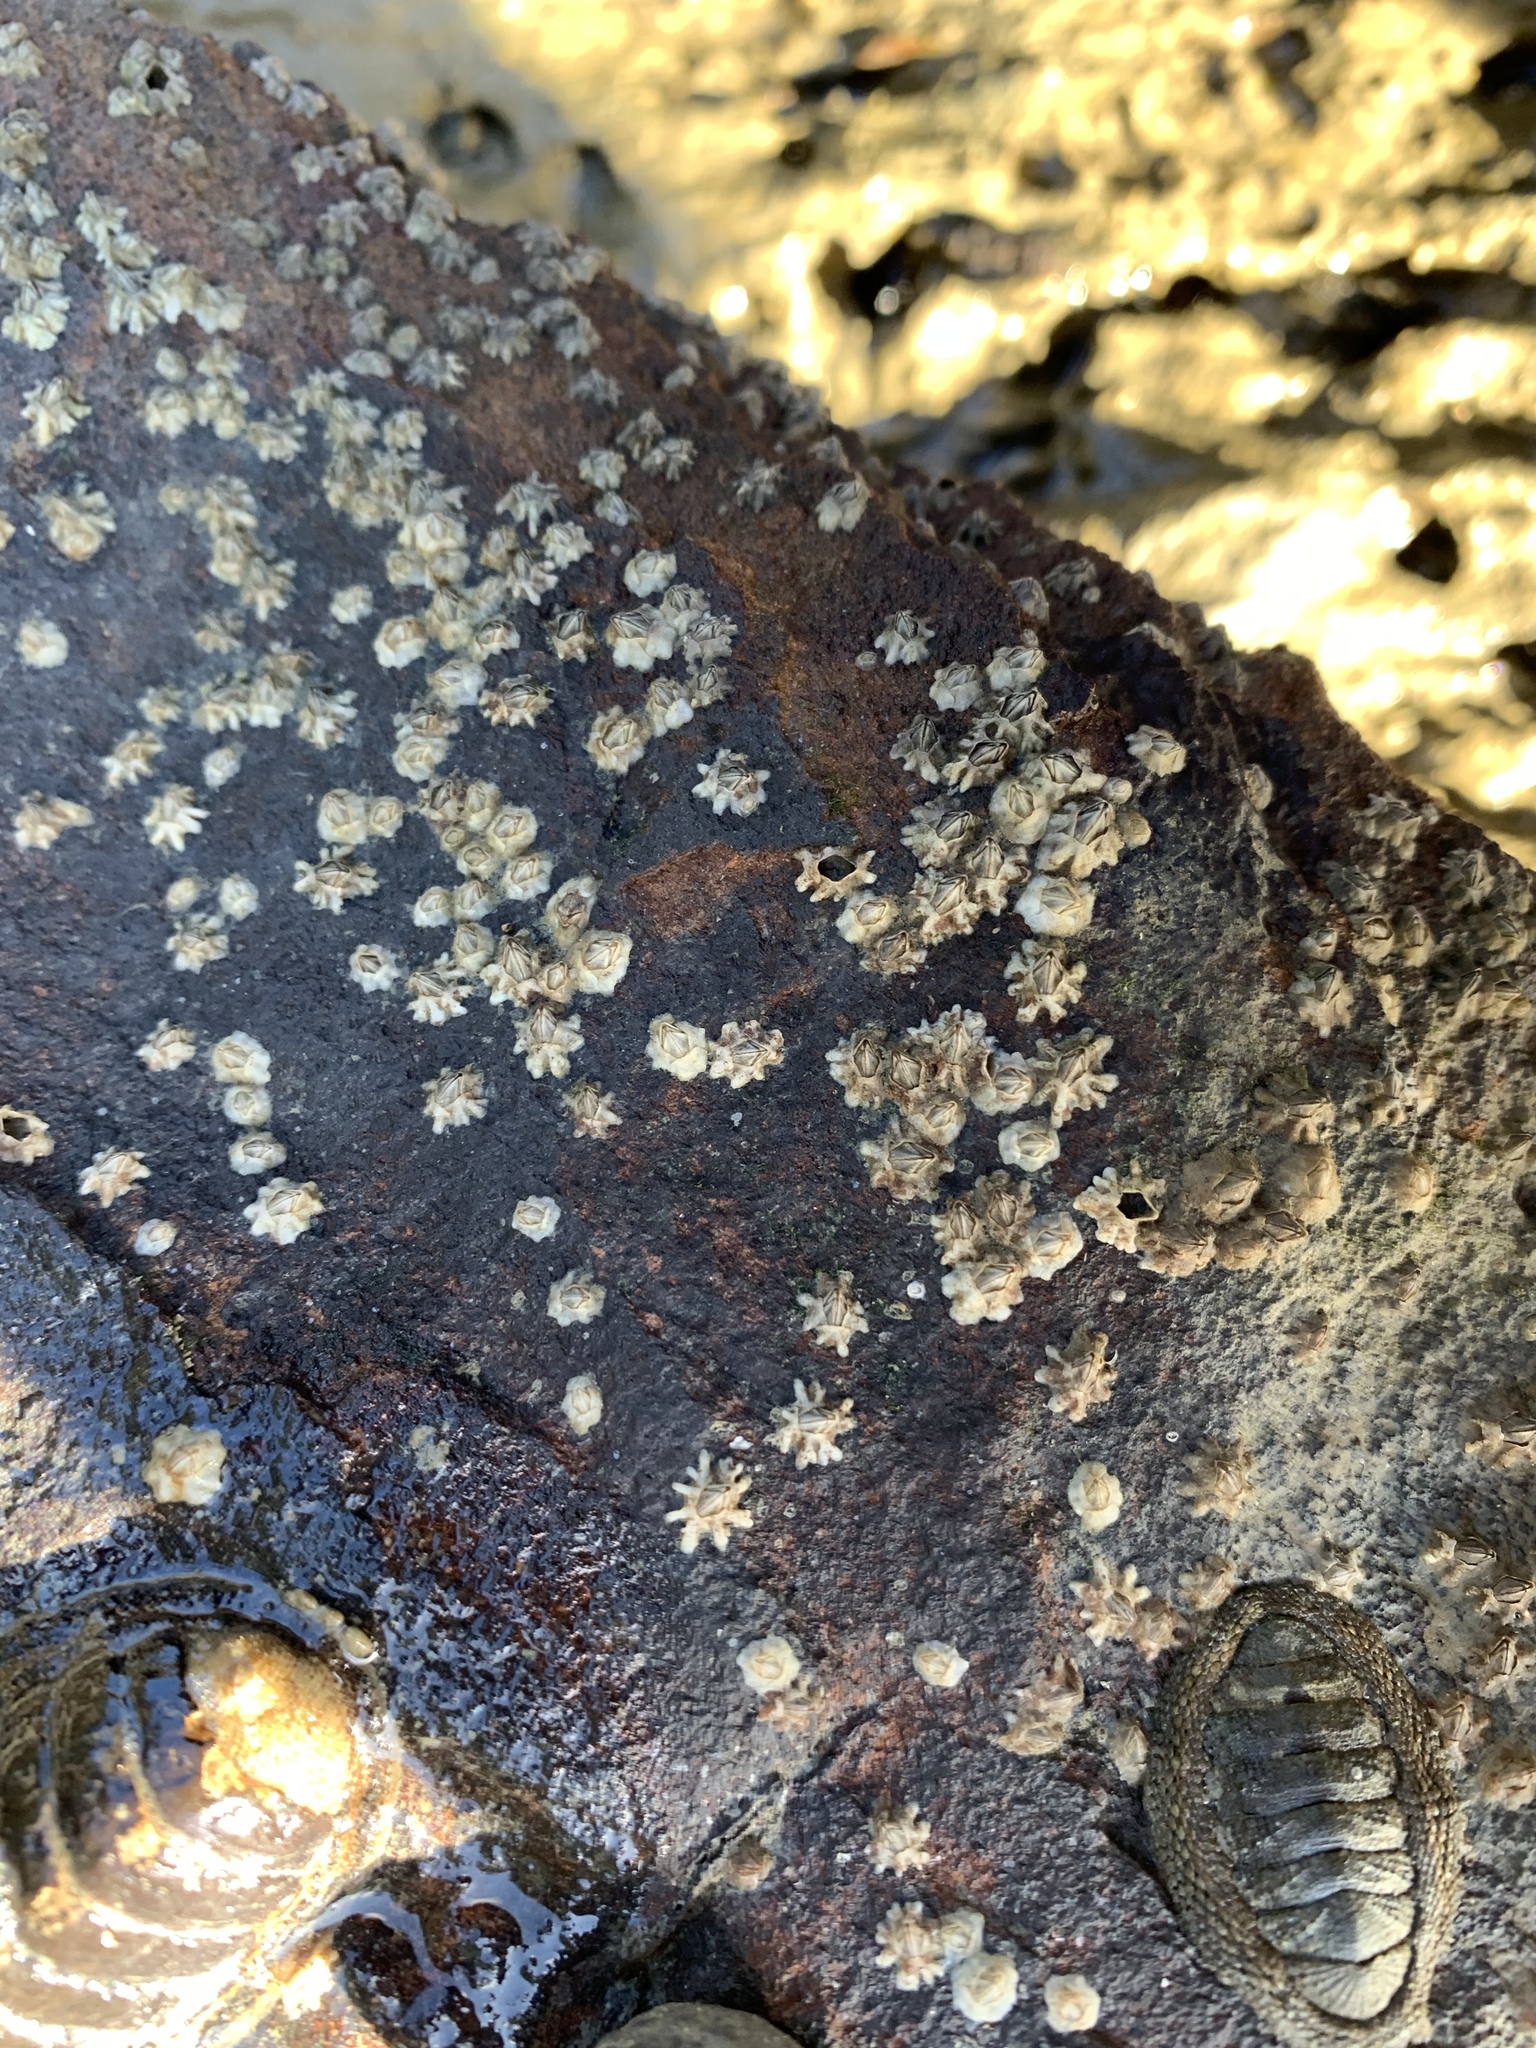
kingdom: Animalia
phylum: Arthropoda
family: Elminiidae
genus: Austrominius
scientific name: Austrominius modestus
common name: Australasian barnacle
